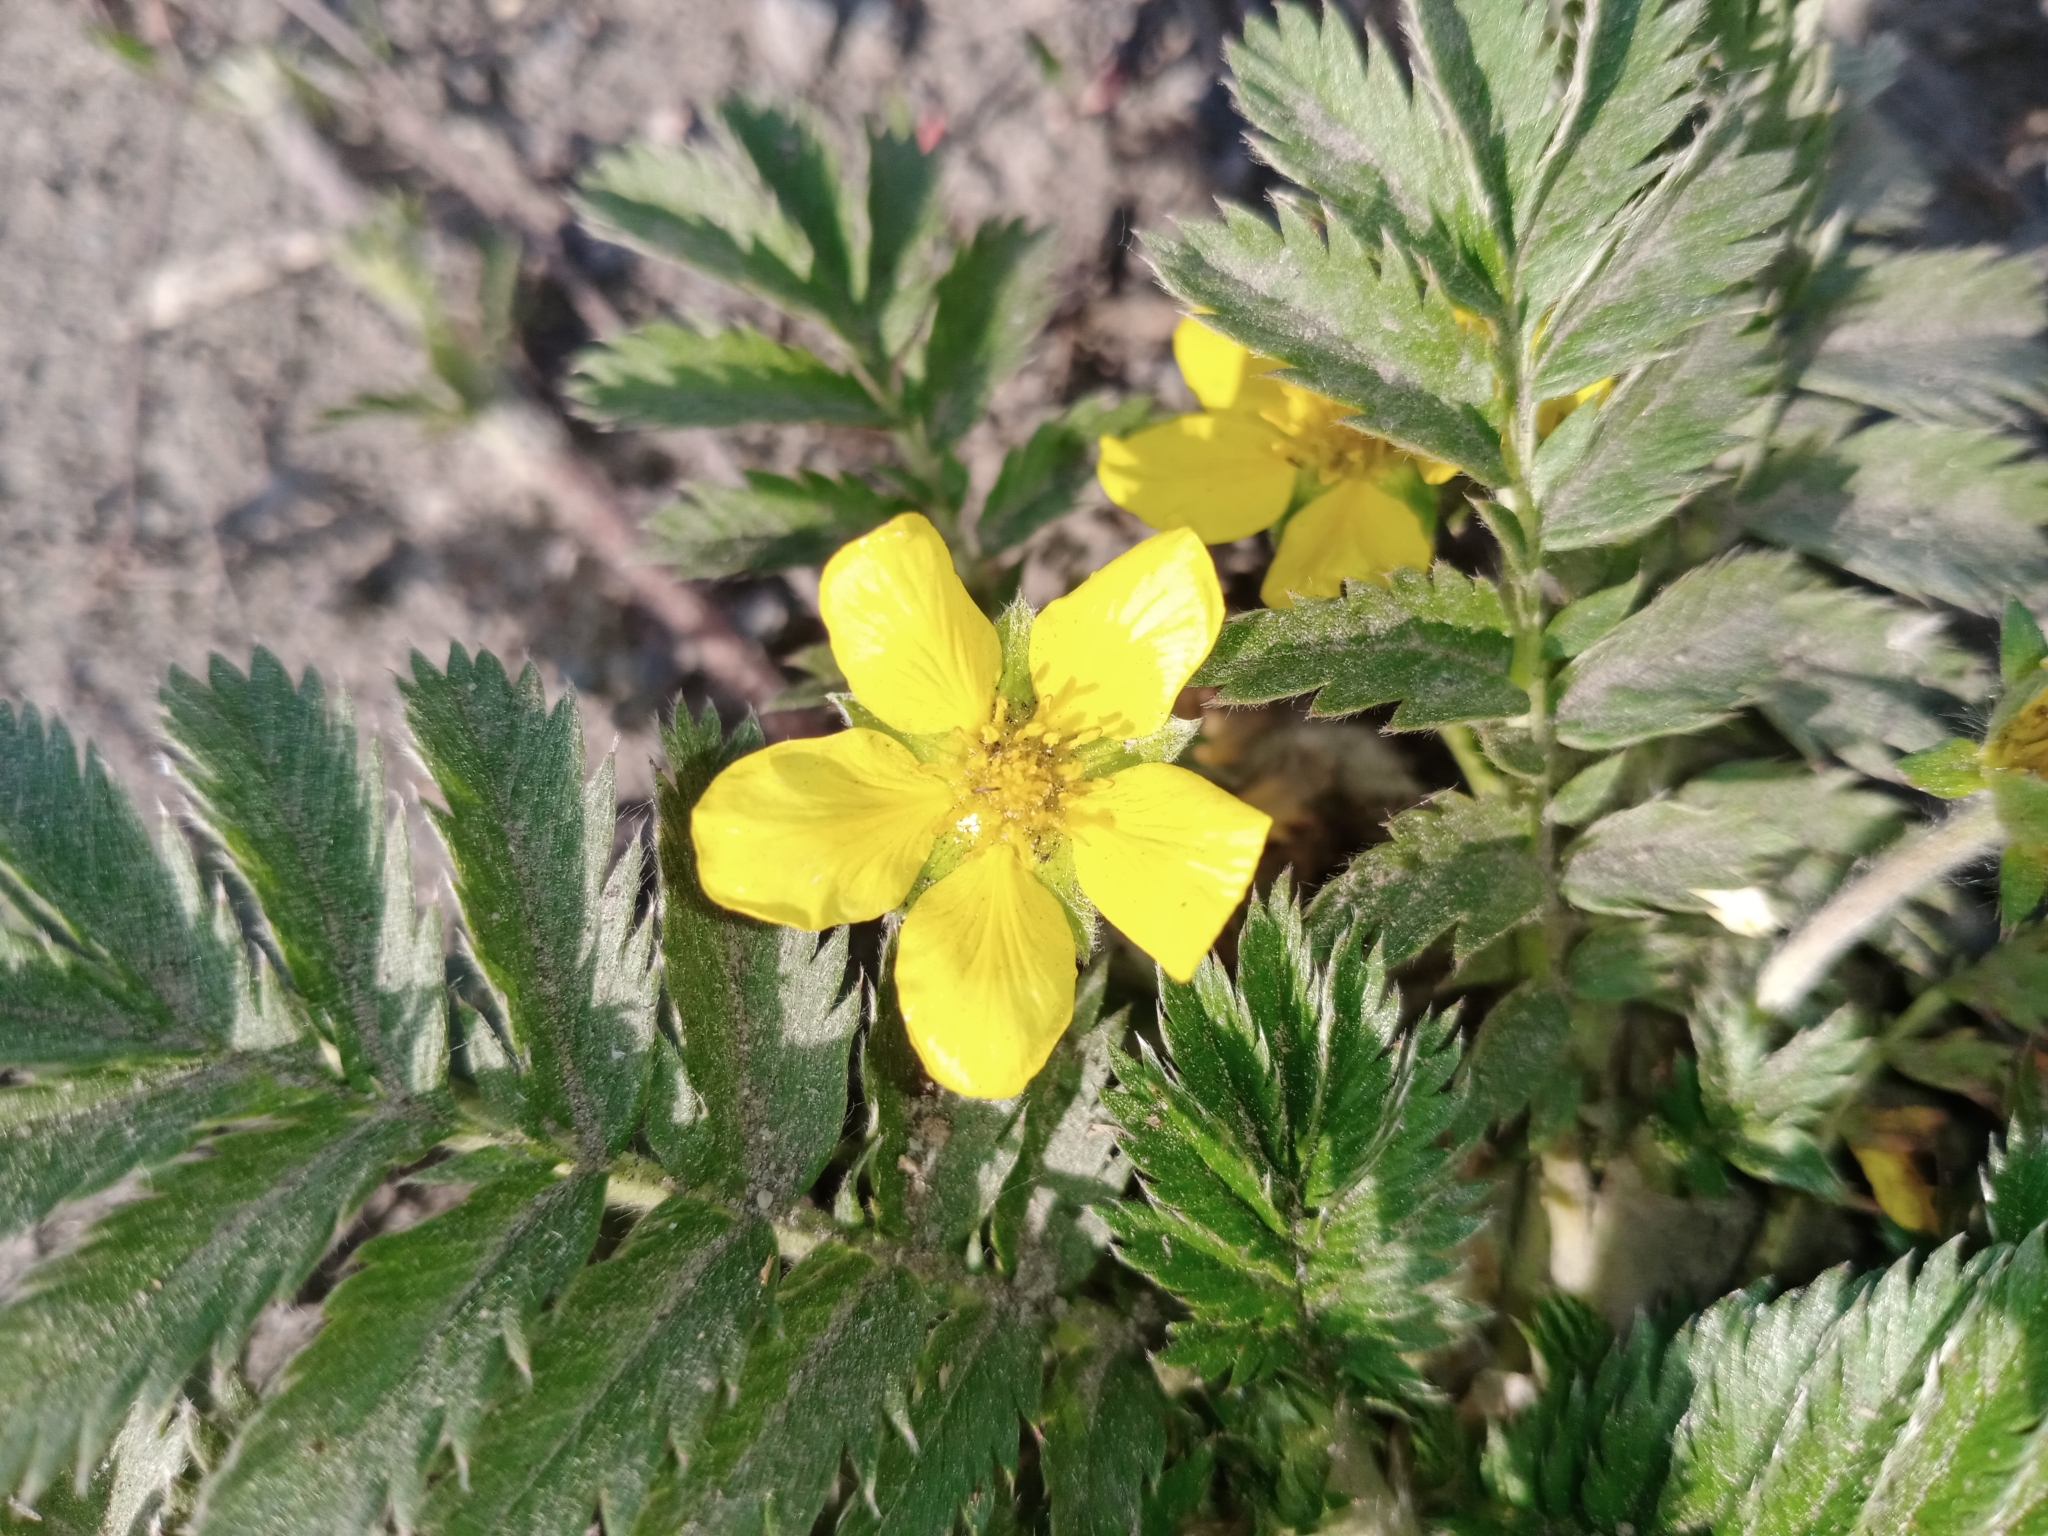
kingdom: Plantae
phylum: Tracheophyta
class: Magnoliopsida
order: Rosales
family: Rosaceae
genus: Argentina
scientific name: Argentina anserina
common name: Common silverweed
